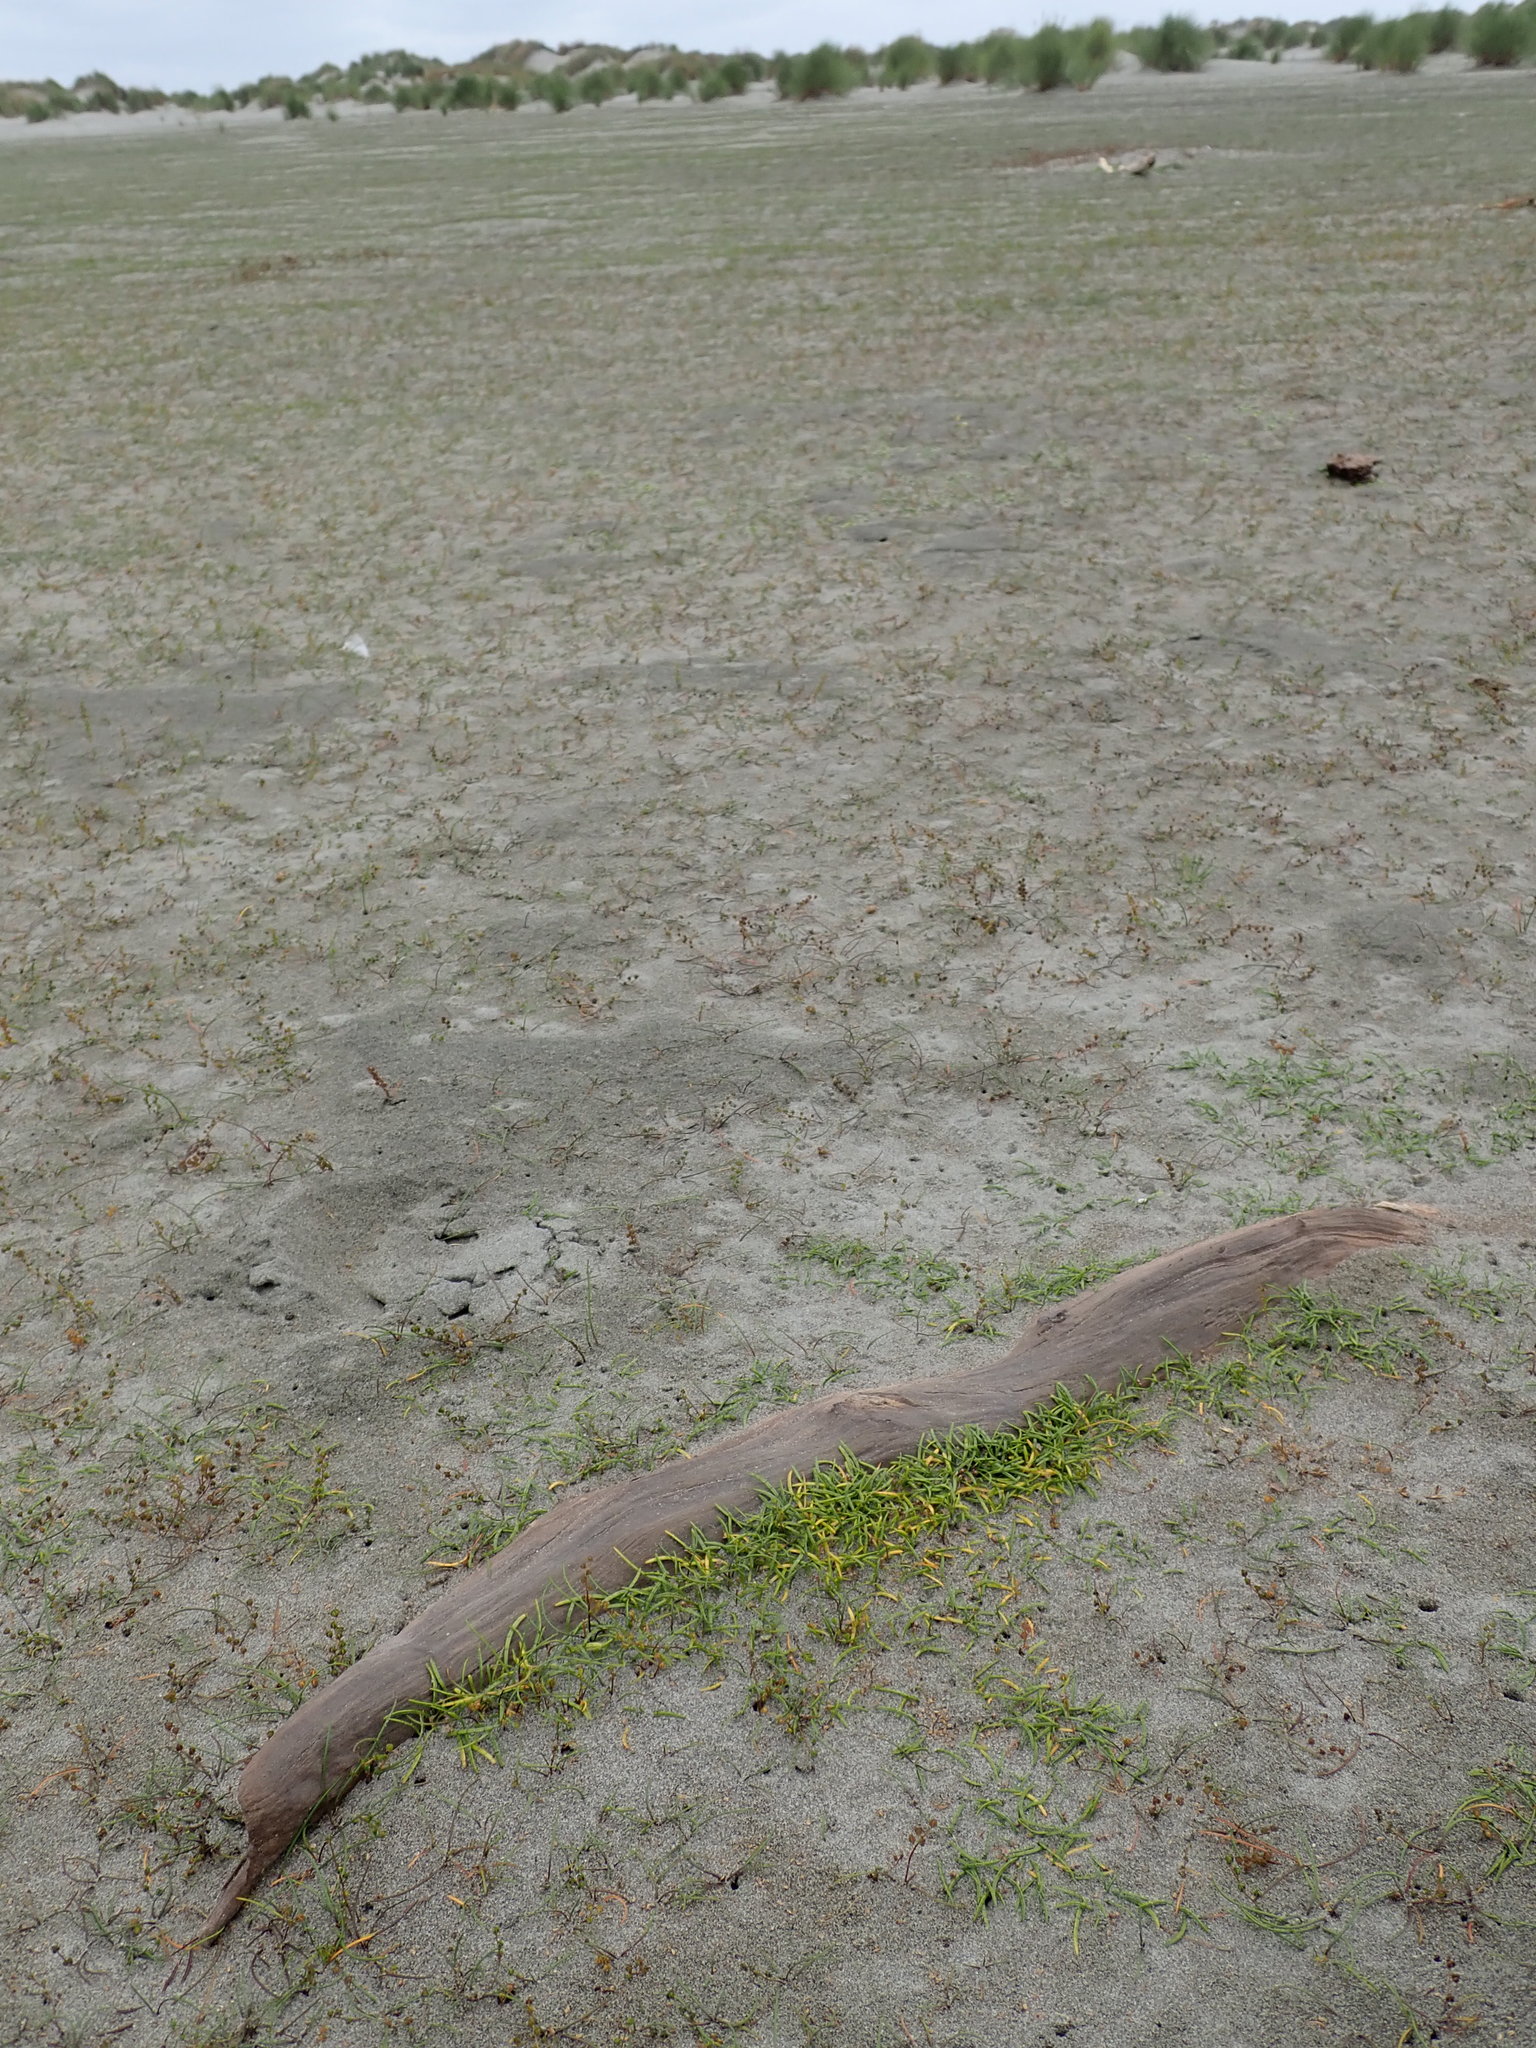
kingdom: Plantae
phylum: Tracheophyta
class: Magnoliopsida
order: Apiales
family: Apiaceae
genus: Lilaeopsis
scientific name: Lilaeopsis novae-zelandiae
